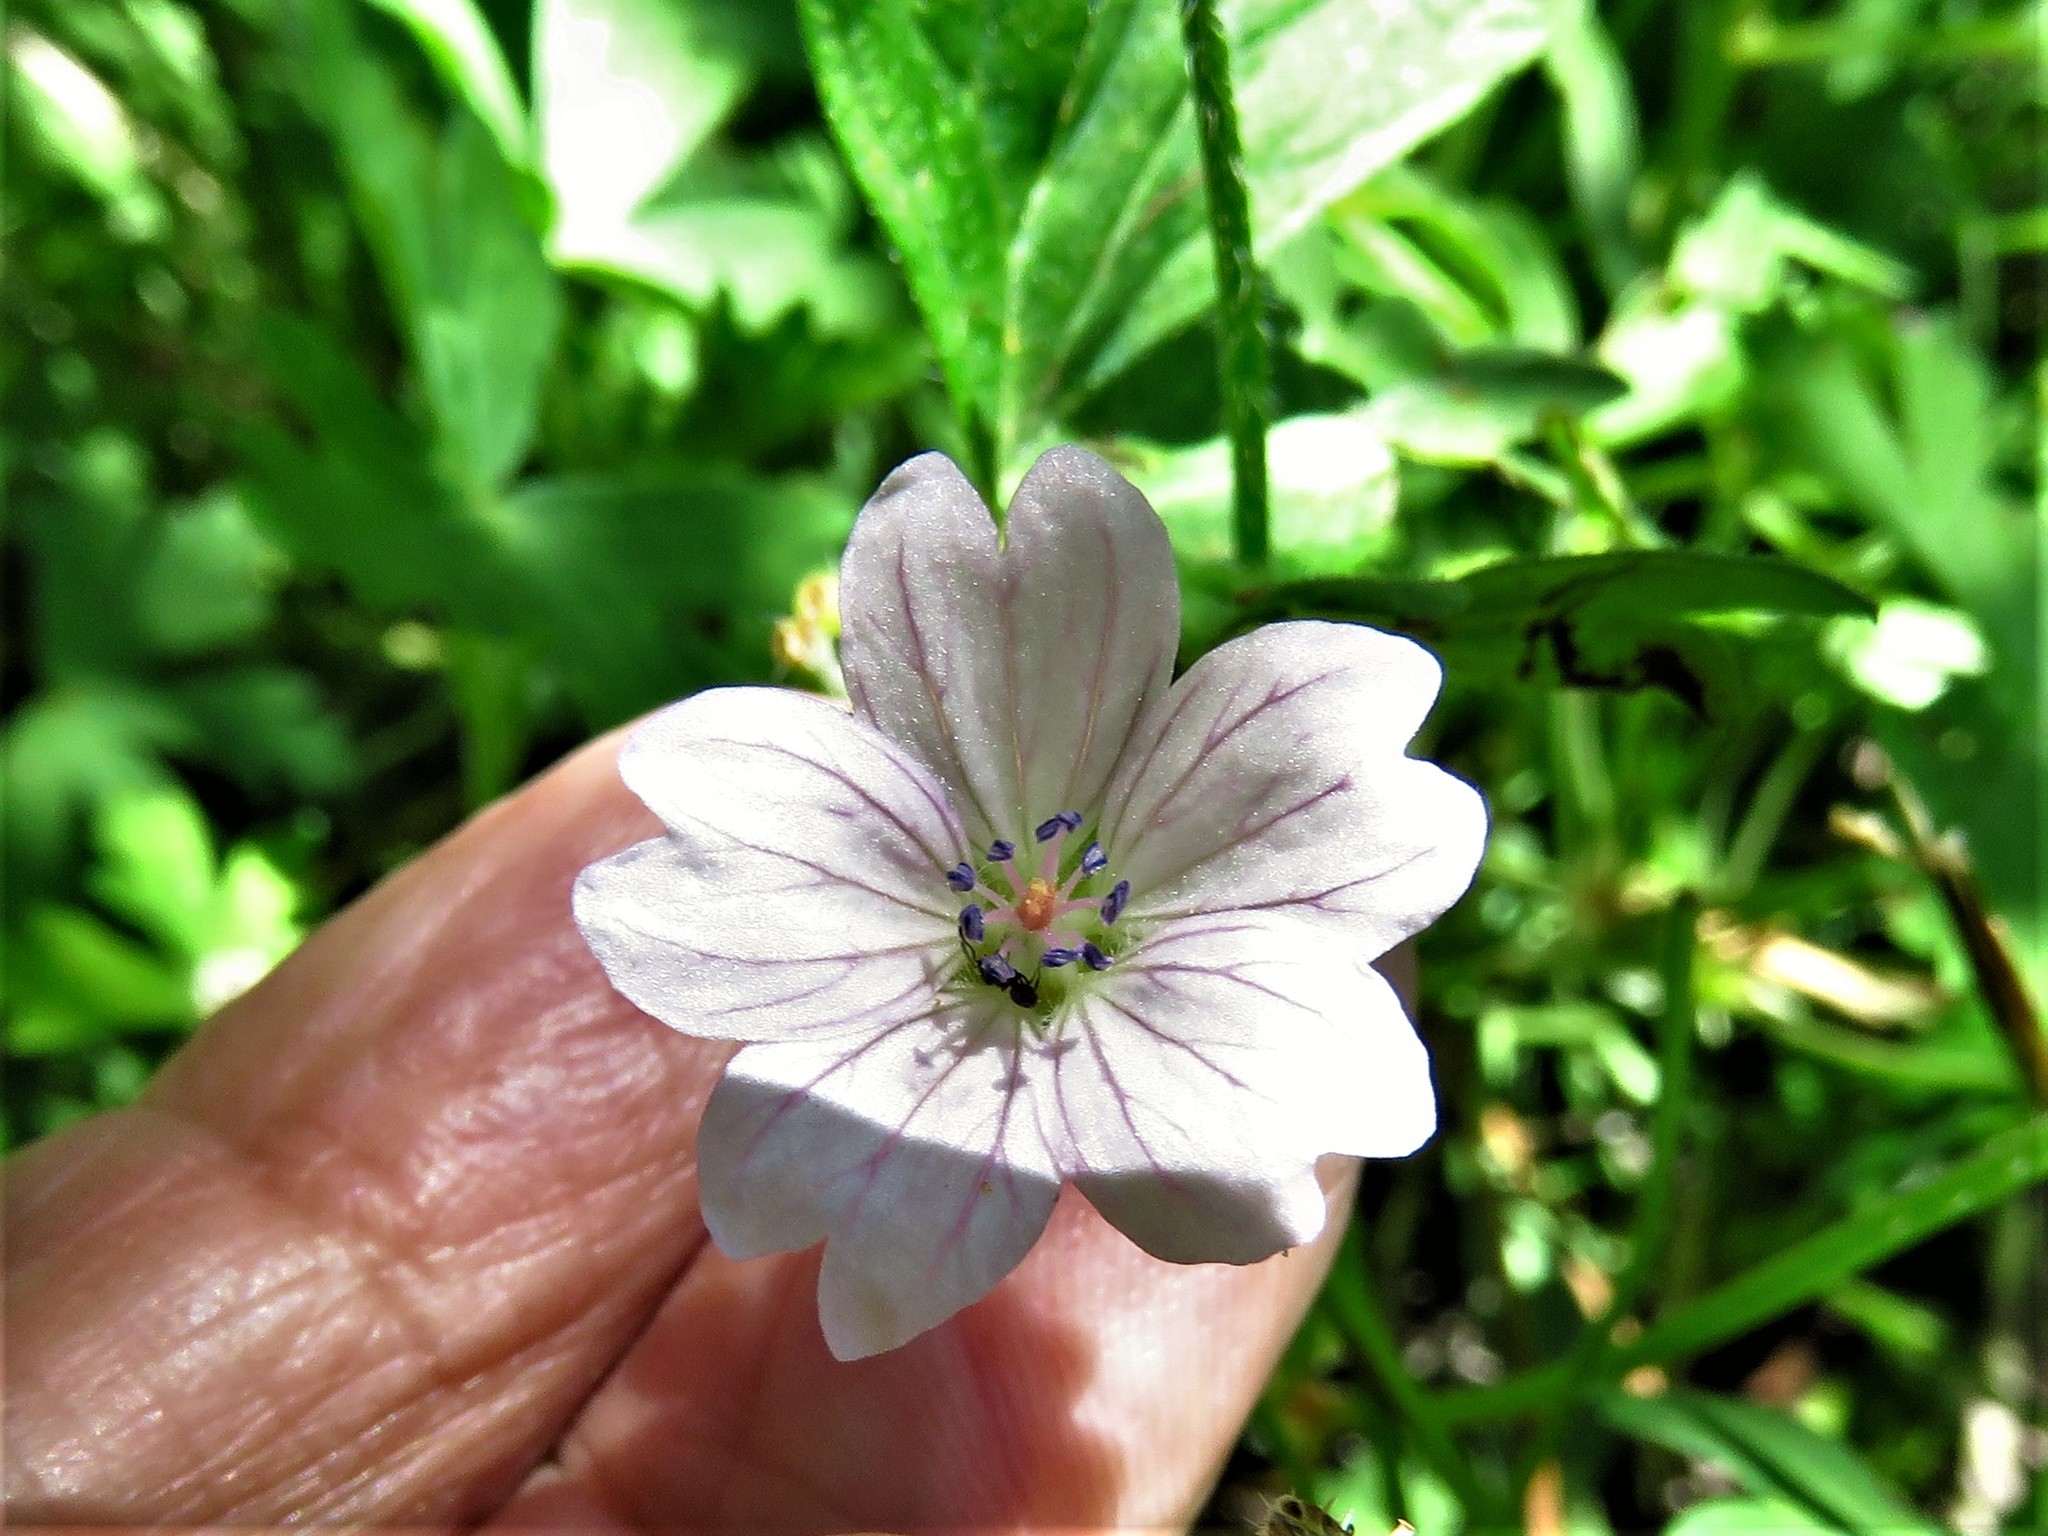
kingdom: Plantae
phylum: Tracheophyta
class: Magnoliopsida
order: Geraniales
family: Geraniaceae
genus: Geranium
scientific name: Geranium seemannii
